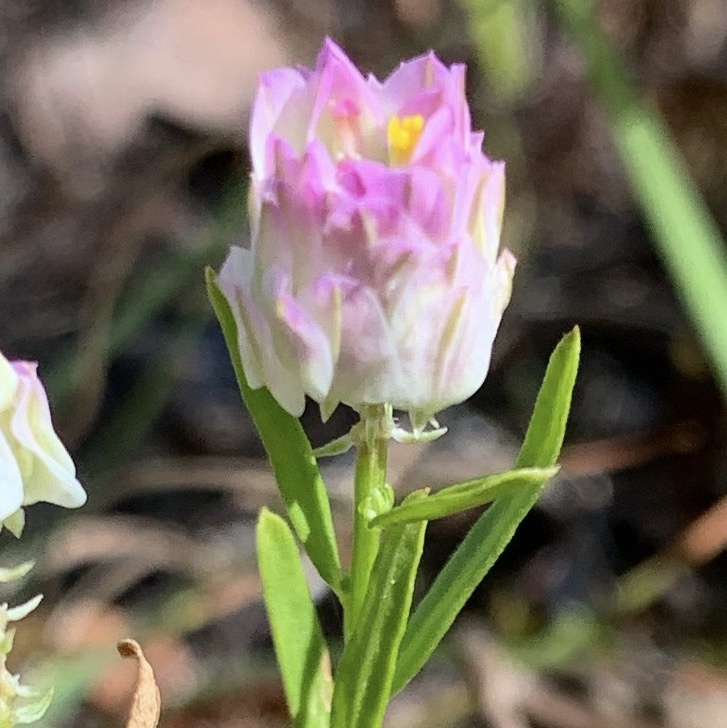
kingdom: Plantae
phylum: Tracheophyta
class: Magnoliopsida
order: Fabales
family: Polygalaceae
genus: Polygala
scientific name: Polygala sanguinea
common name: Blood milkwort
